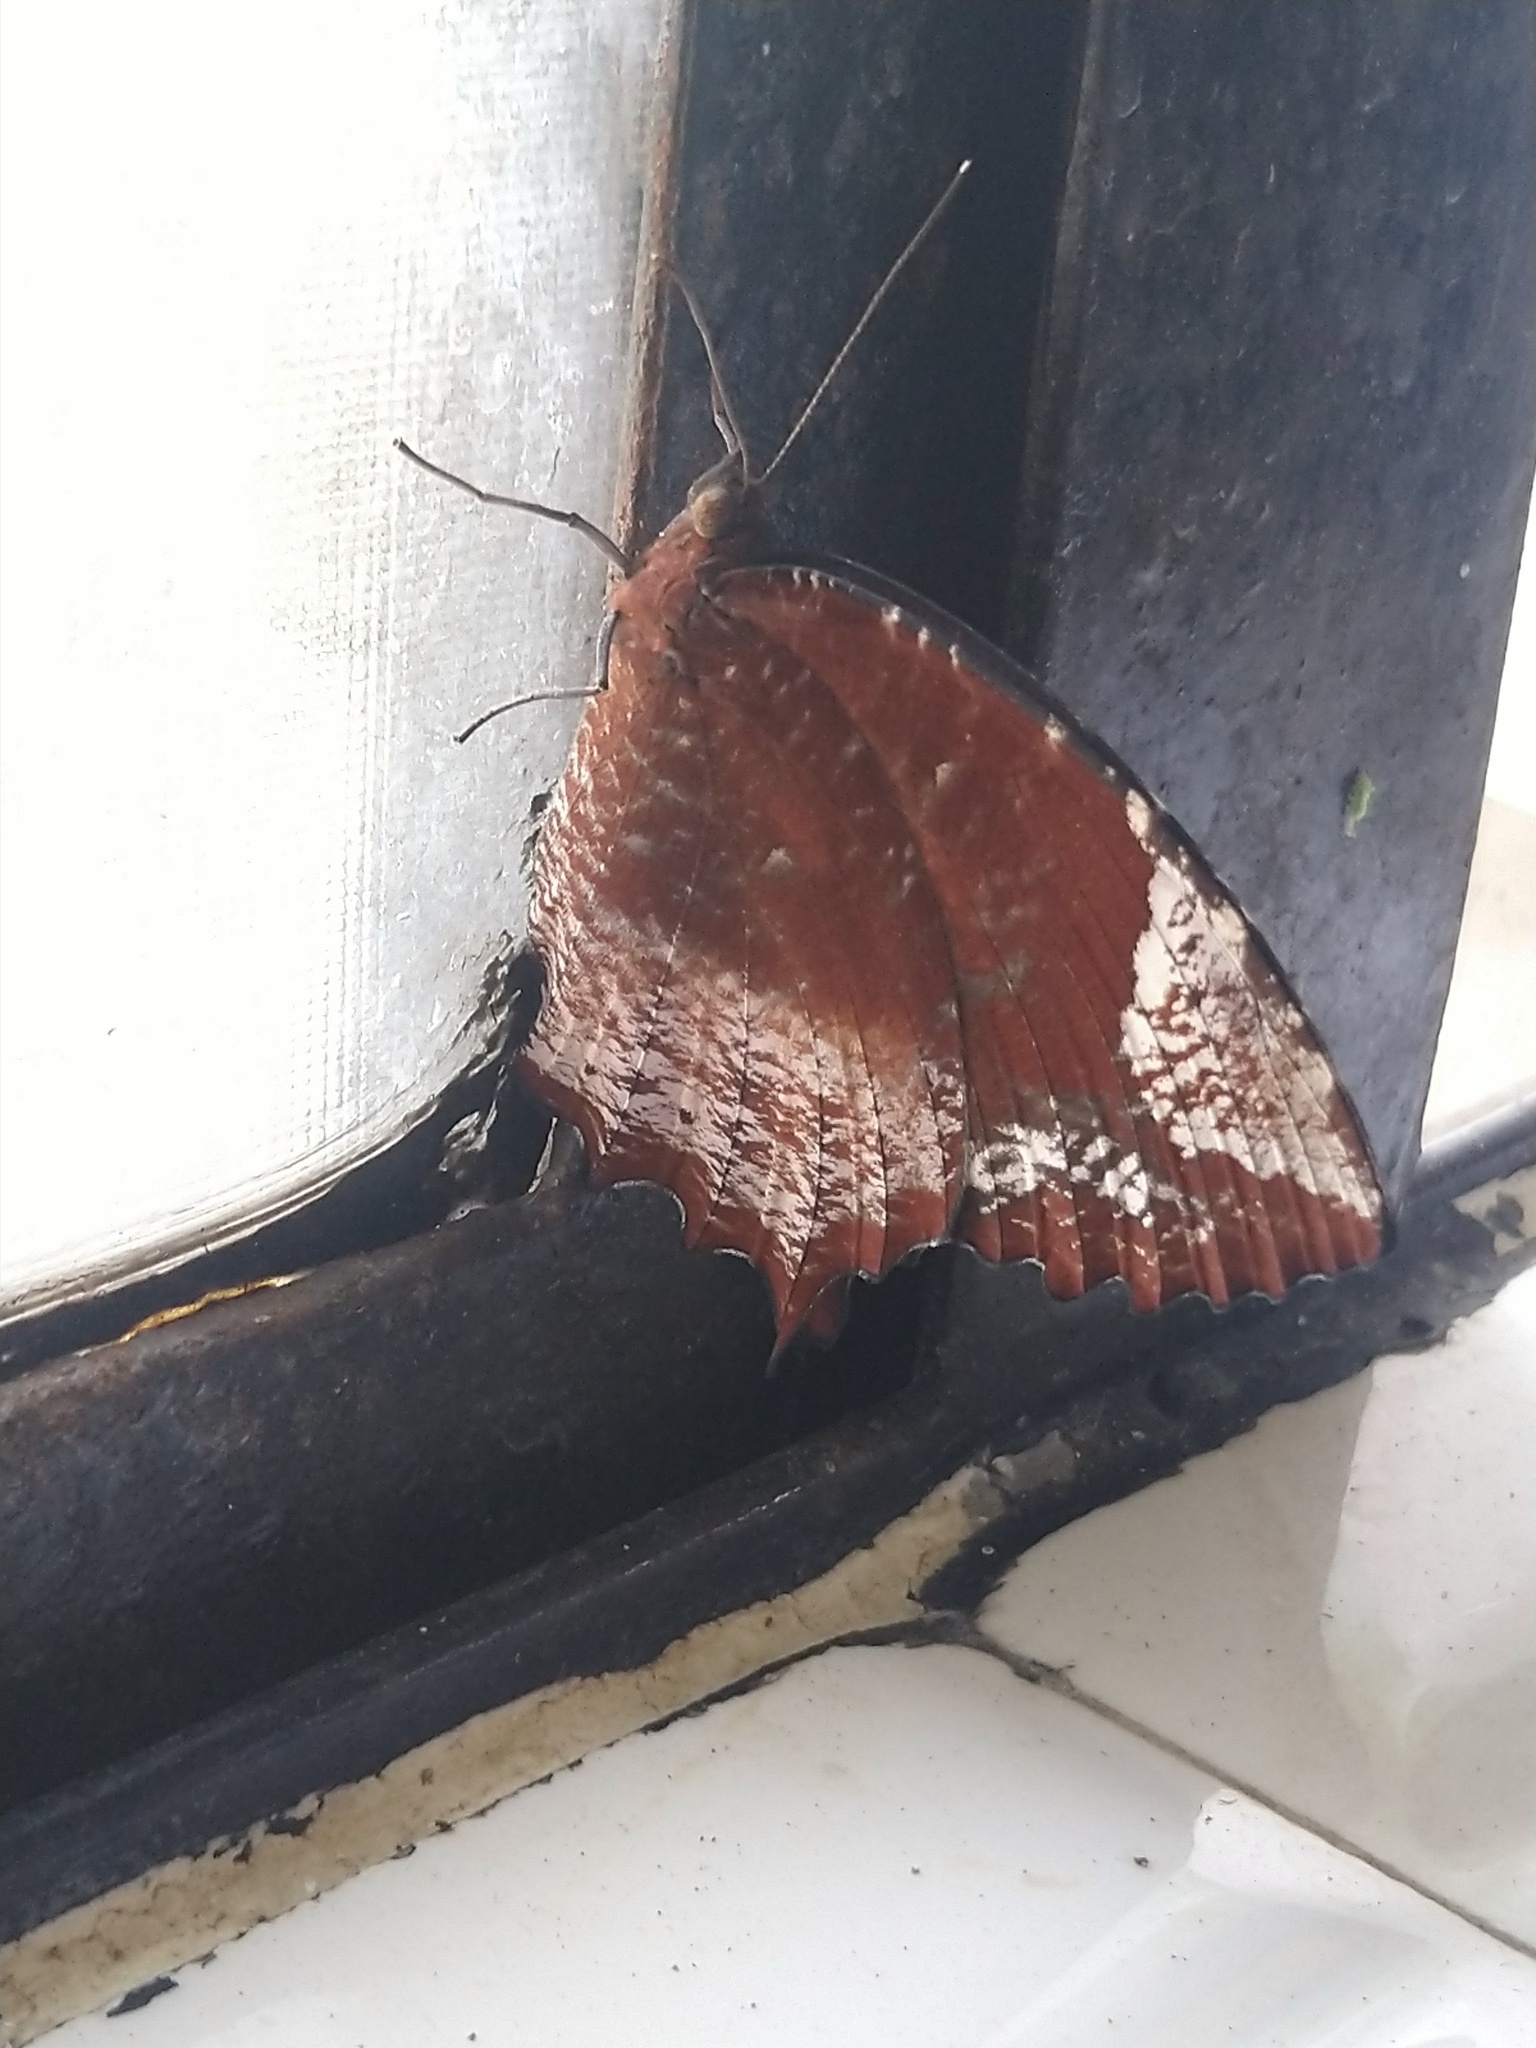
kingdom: Animalia
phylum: Arthropoda
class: Insecta
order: Lepidoptera
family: Nymphalidae
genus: Elymnias
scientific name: Elymnias caudata
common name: Tailed palmfly
